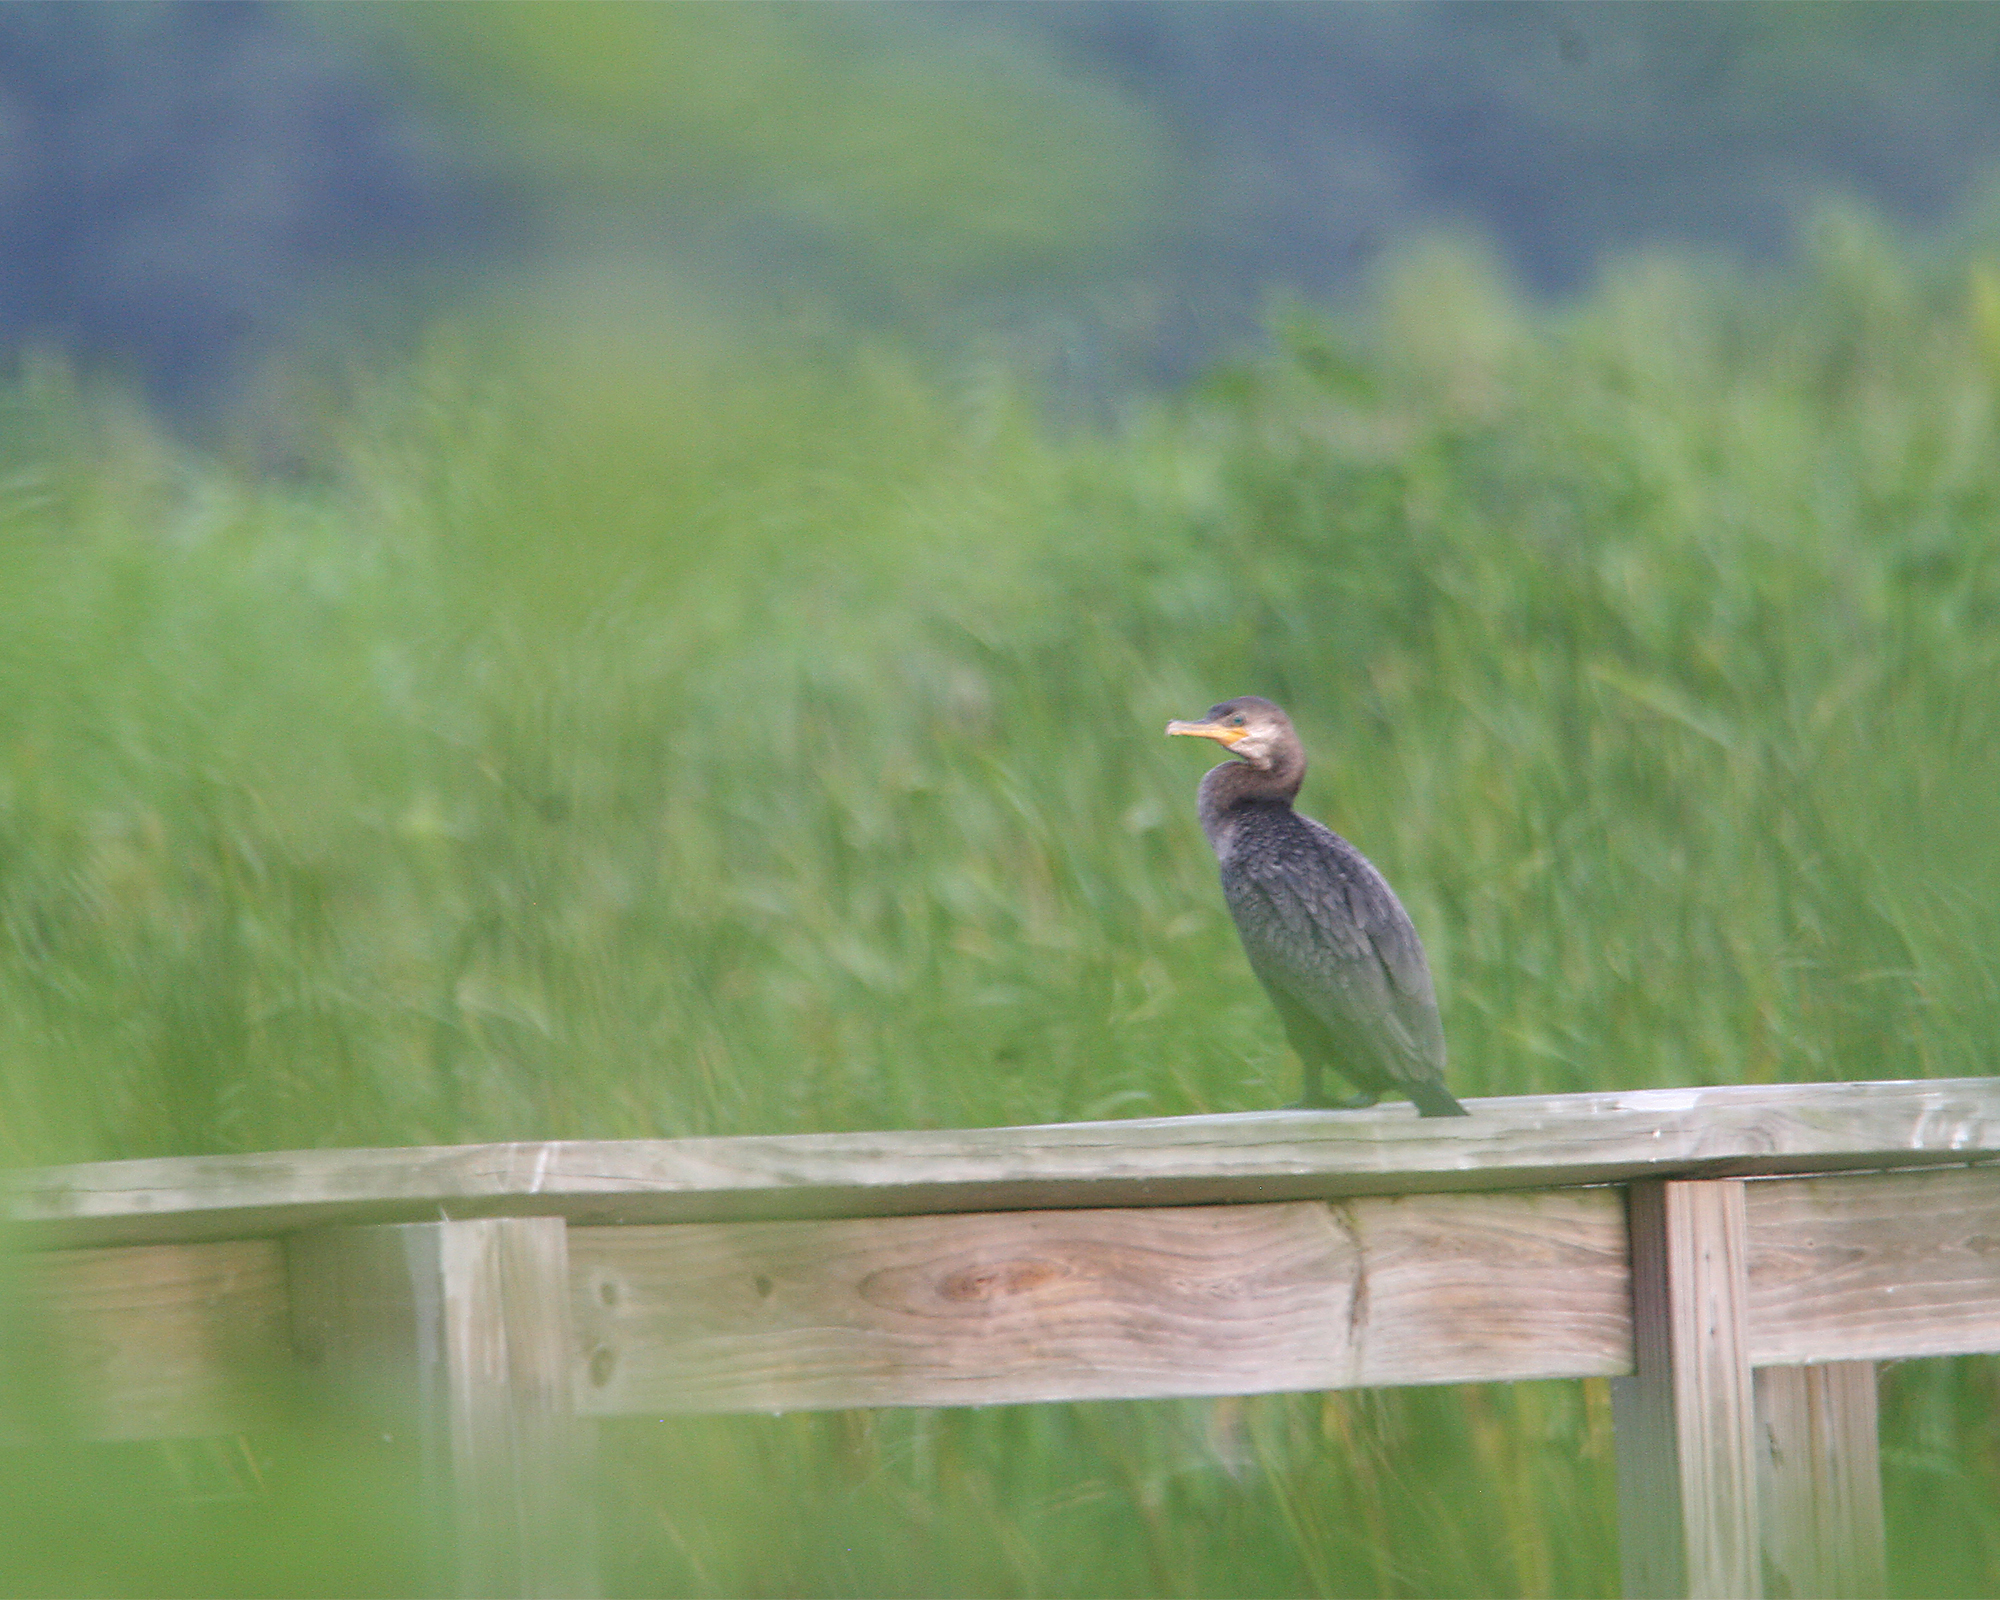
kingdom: Animalia
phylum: Chordata
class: Aves
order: Suliformes
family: Phalacrocoracidae
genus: Phalacrocorax
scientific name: Phalacrocorax brasilianus
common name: Neotropic cormorant
